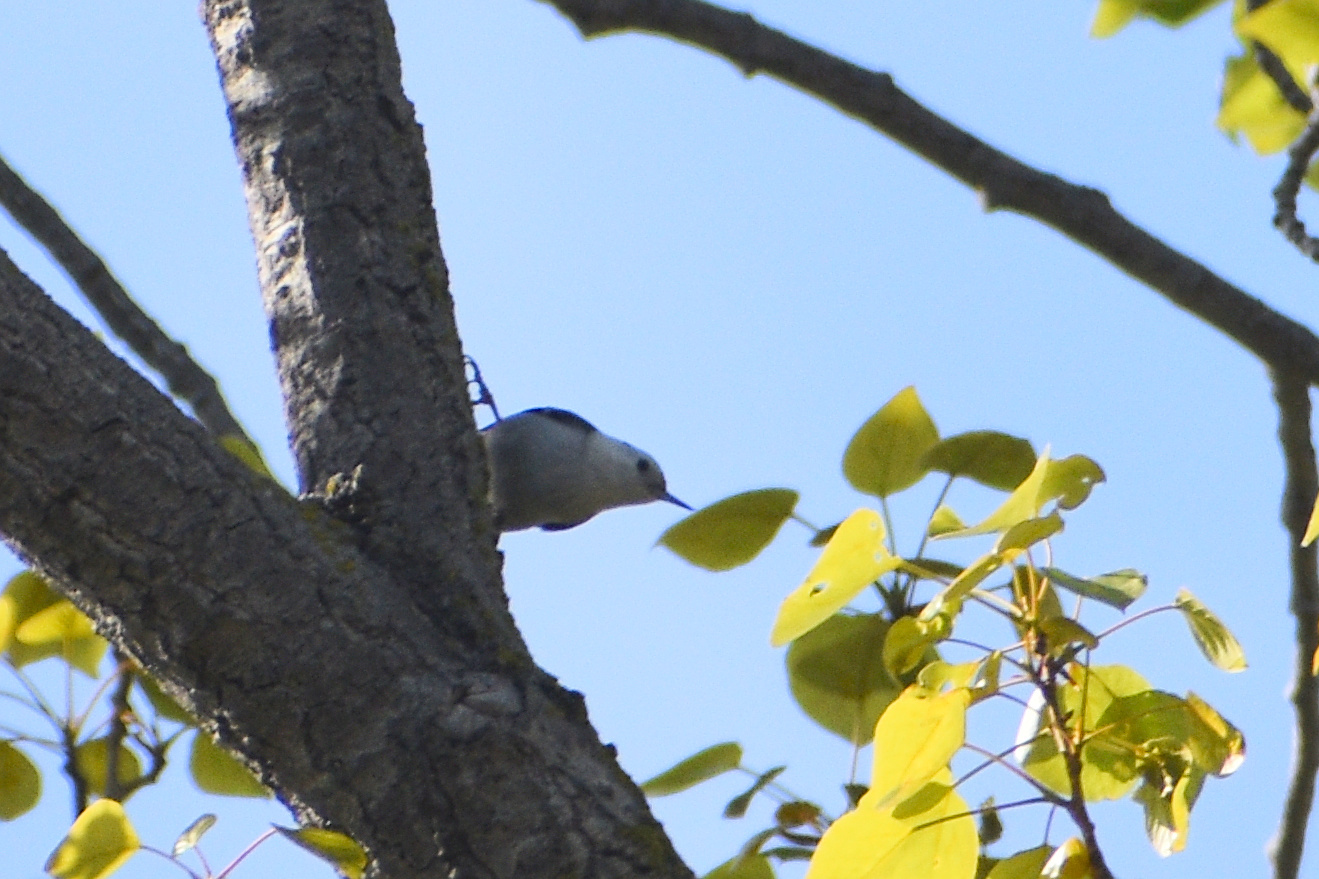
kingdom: Animalia
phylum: Chordata
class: Aves
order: Passeriformes
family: Sittidae
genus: Sitta
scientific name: Sitta carolinensis
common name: White-breasted nuthatch
